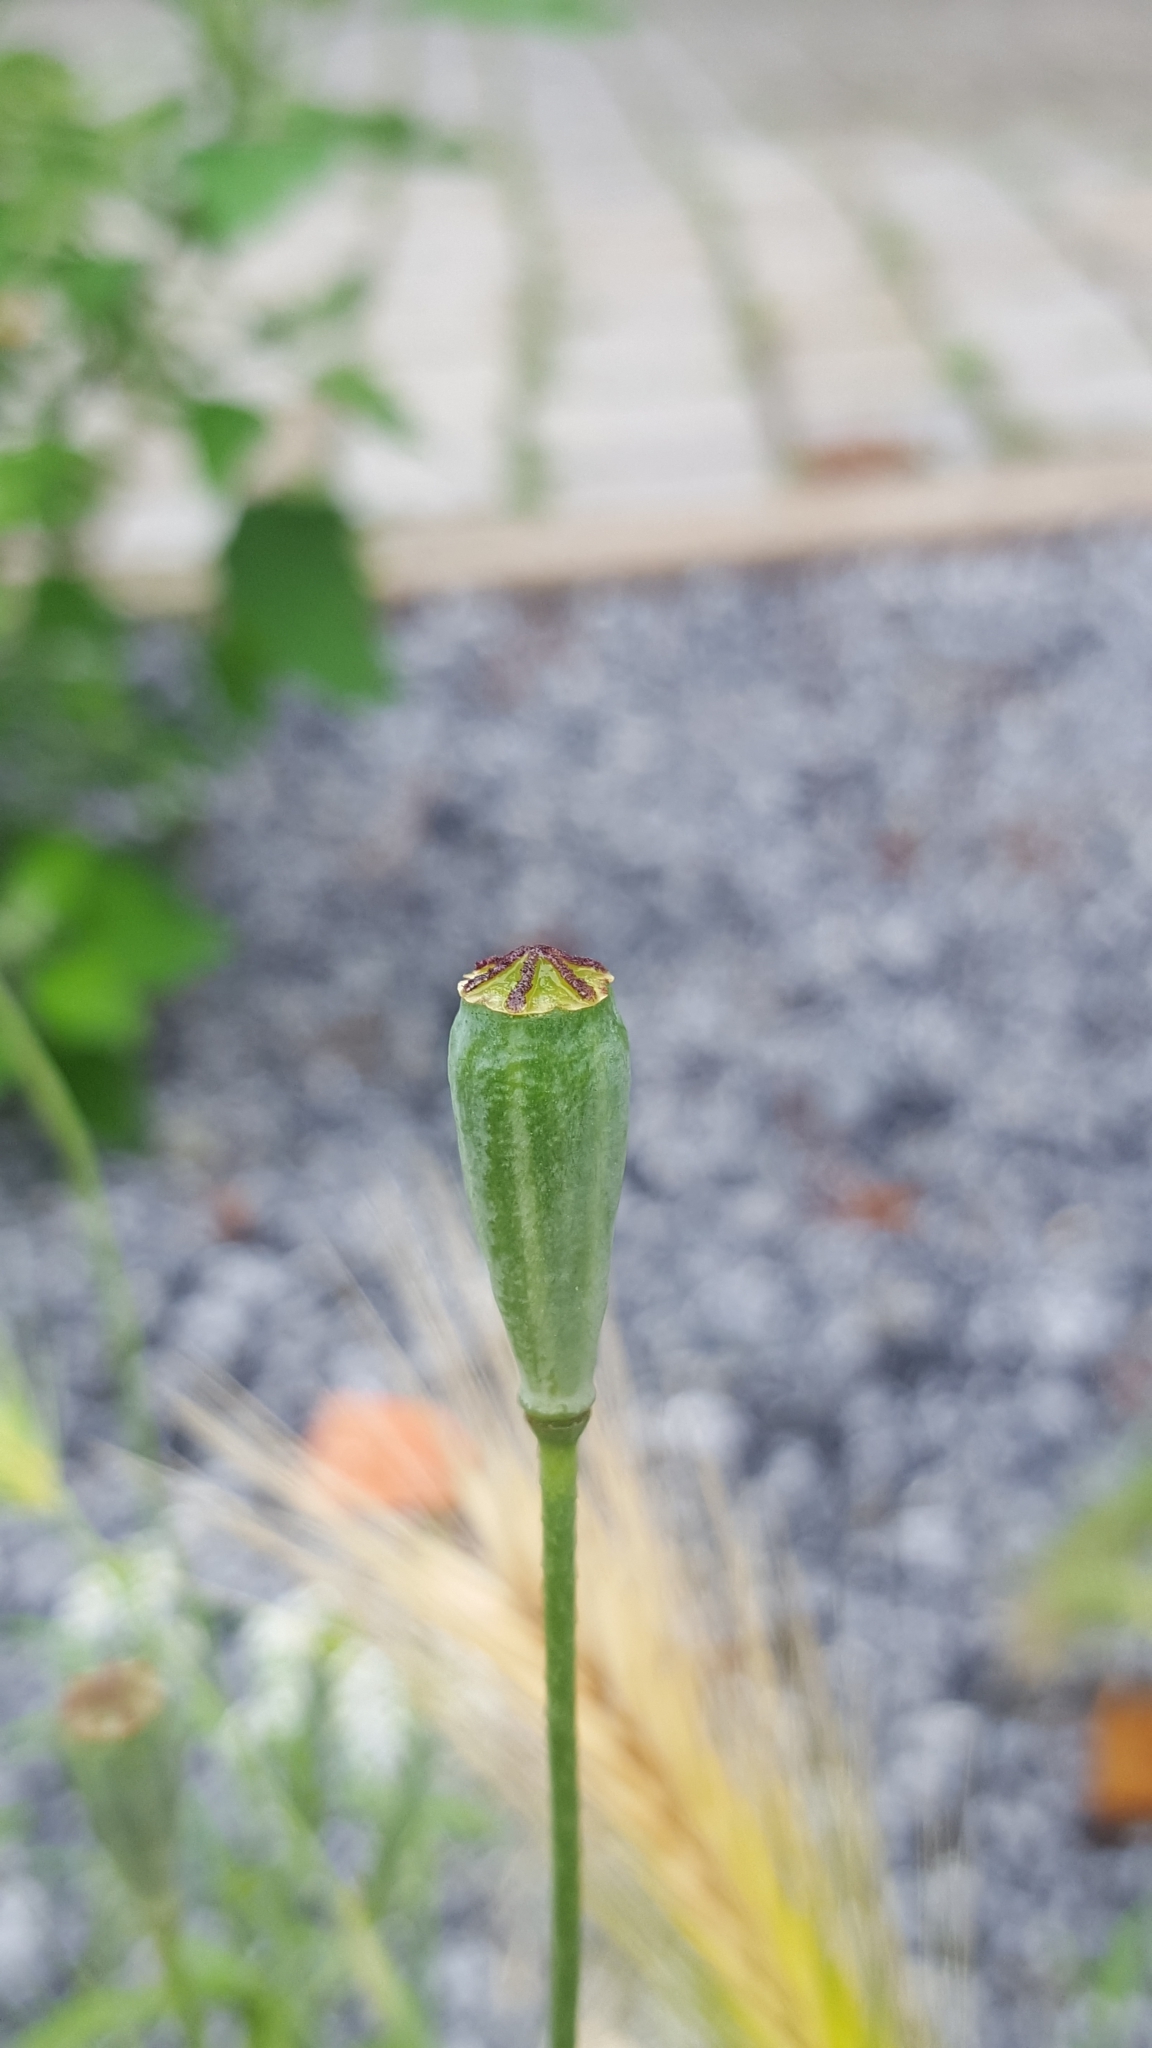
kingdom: Plantae
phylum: Tracheophyta
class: Magnoliopsida
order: Ranunculales
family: Papaveraceae
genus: Papaver
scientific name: Papaver dubium
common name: Long-headed poppy
